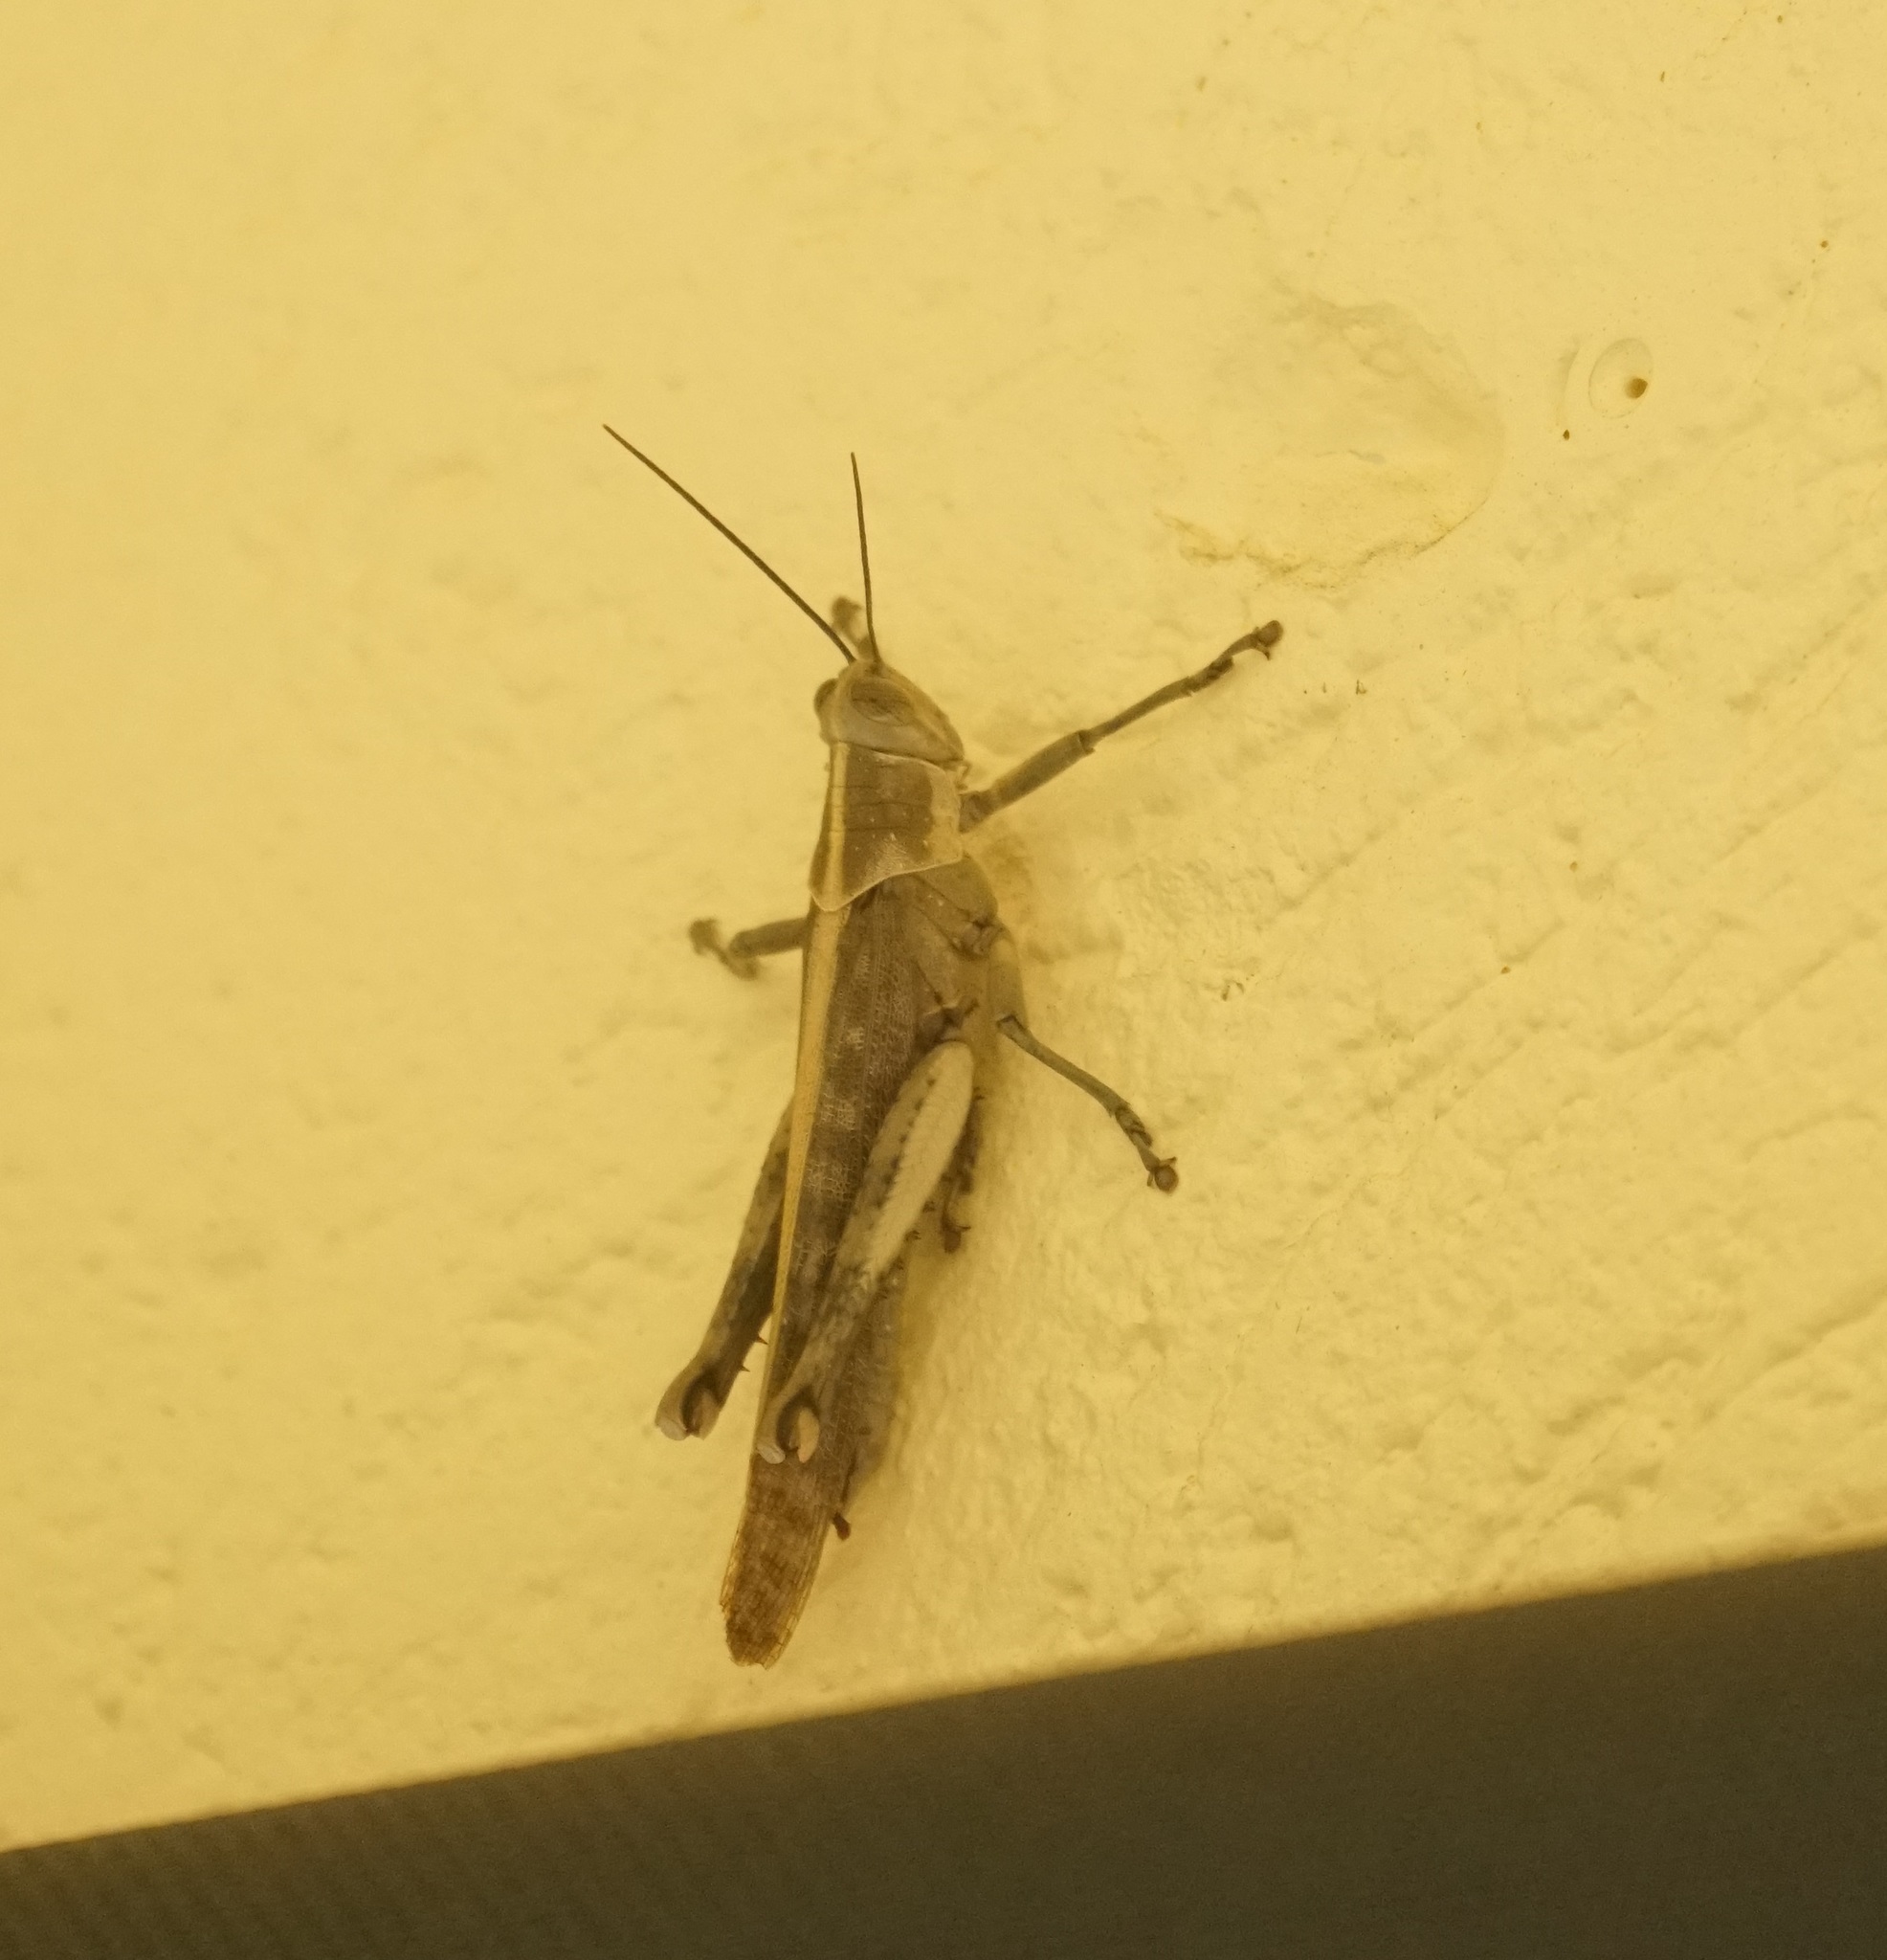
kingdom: Animalia
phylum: Arthropoda
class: Insecta
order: Orthoptera
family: Acrididae
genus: Valanga
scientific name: Valanga irregularis
